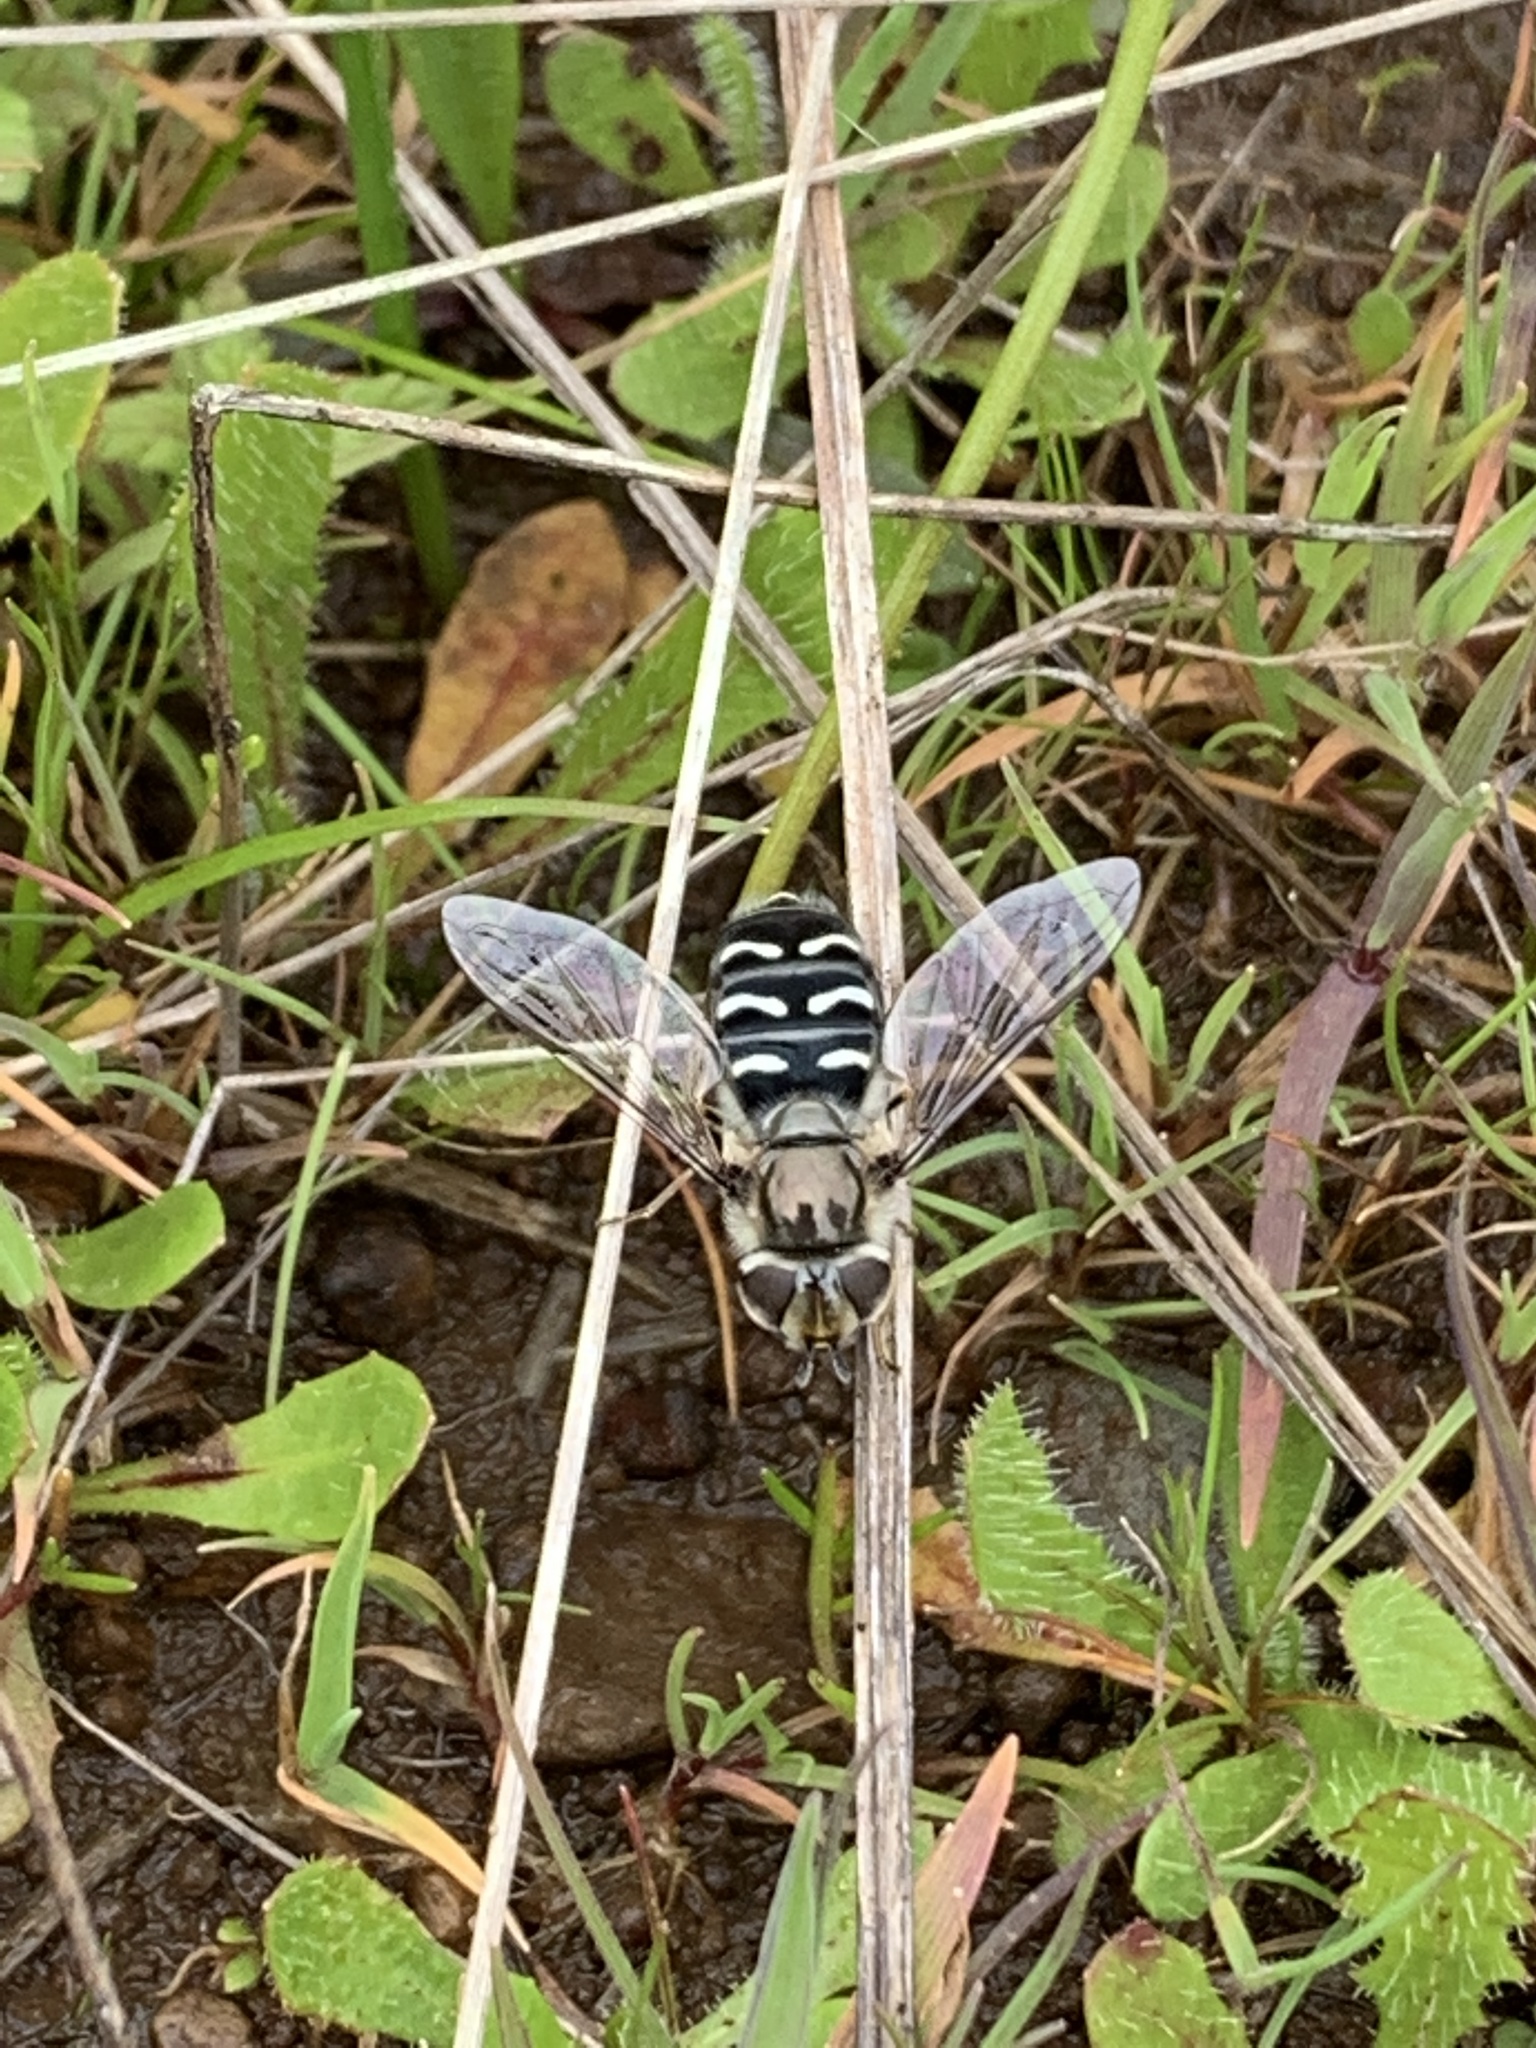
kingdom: Animalia
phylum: Arthropoda
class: Insecta
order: Diptera
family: Syrphidae
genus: Scaeva
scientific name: Scaeva affinis
